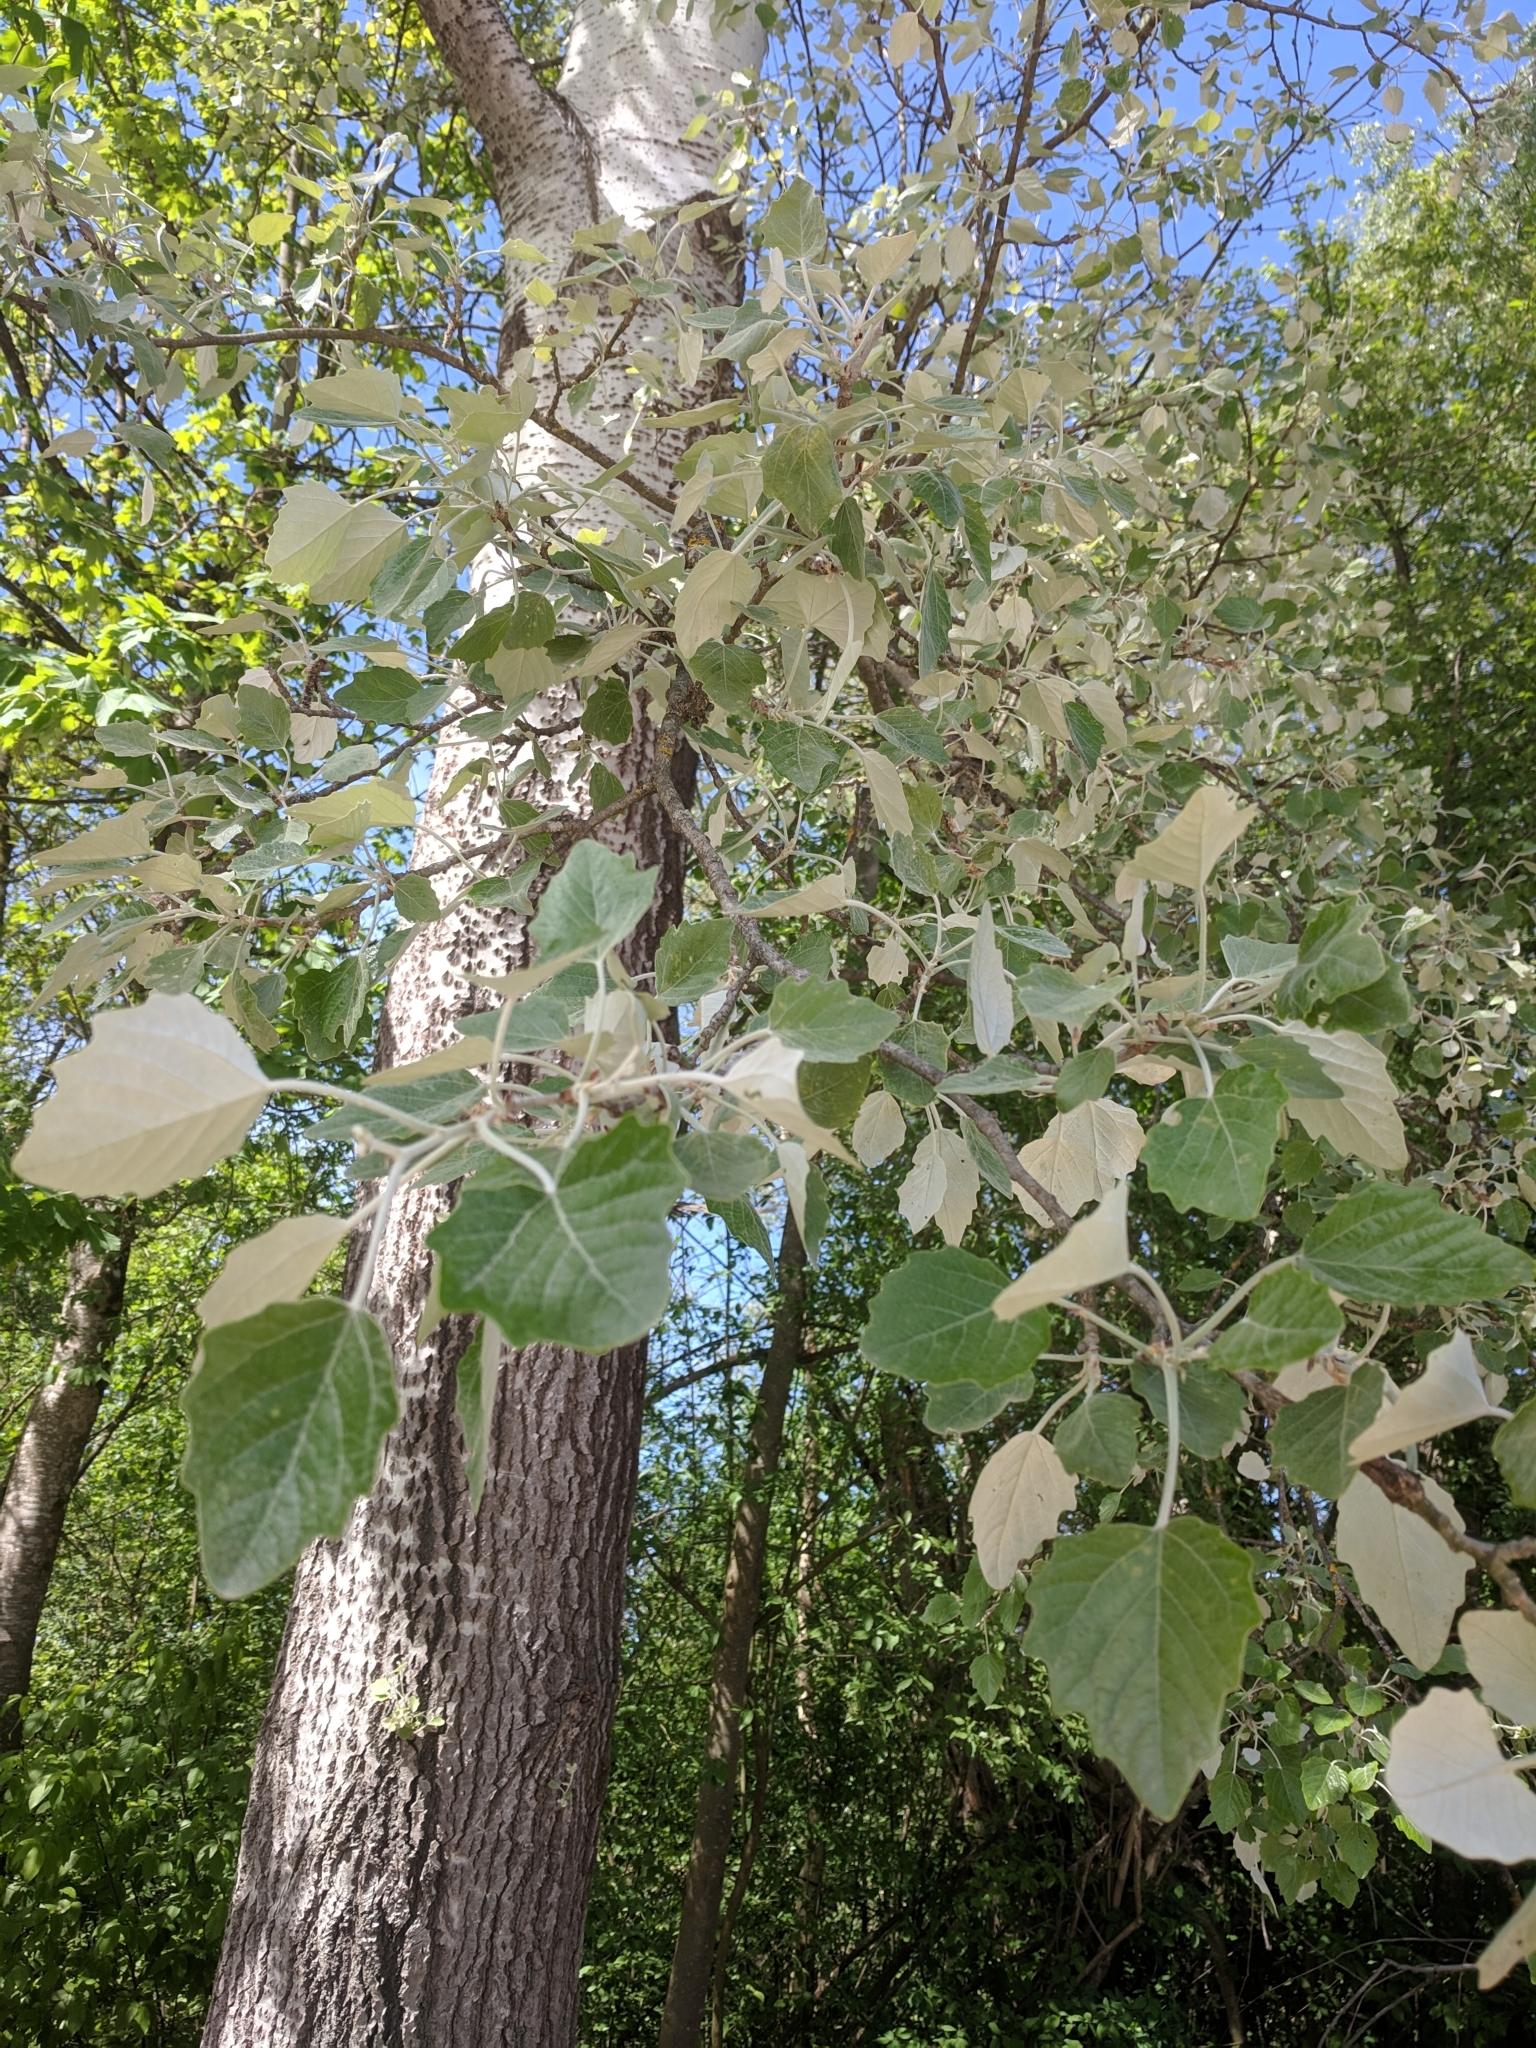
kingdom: Plantae
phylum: Tracheophyta
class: Magnoliopsida
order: Malpighiales
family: Salicaceae
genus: Populus
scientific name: Populus alba
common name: White poplar
